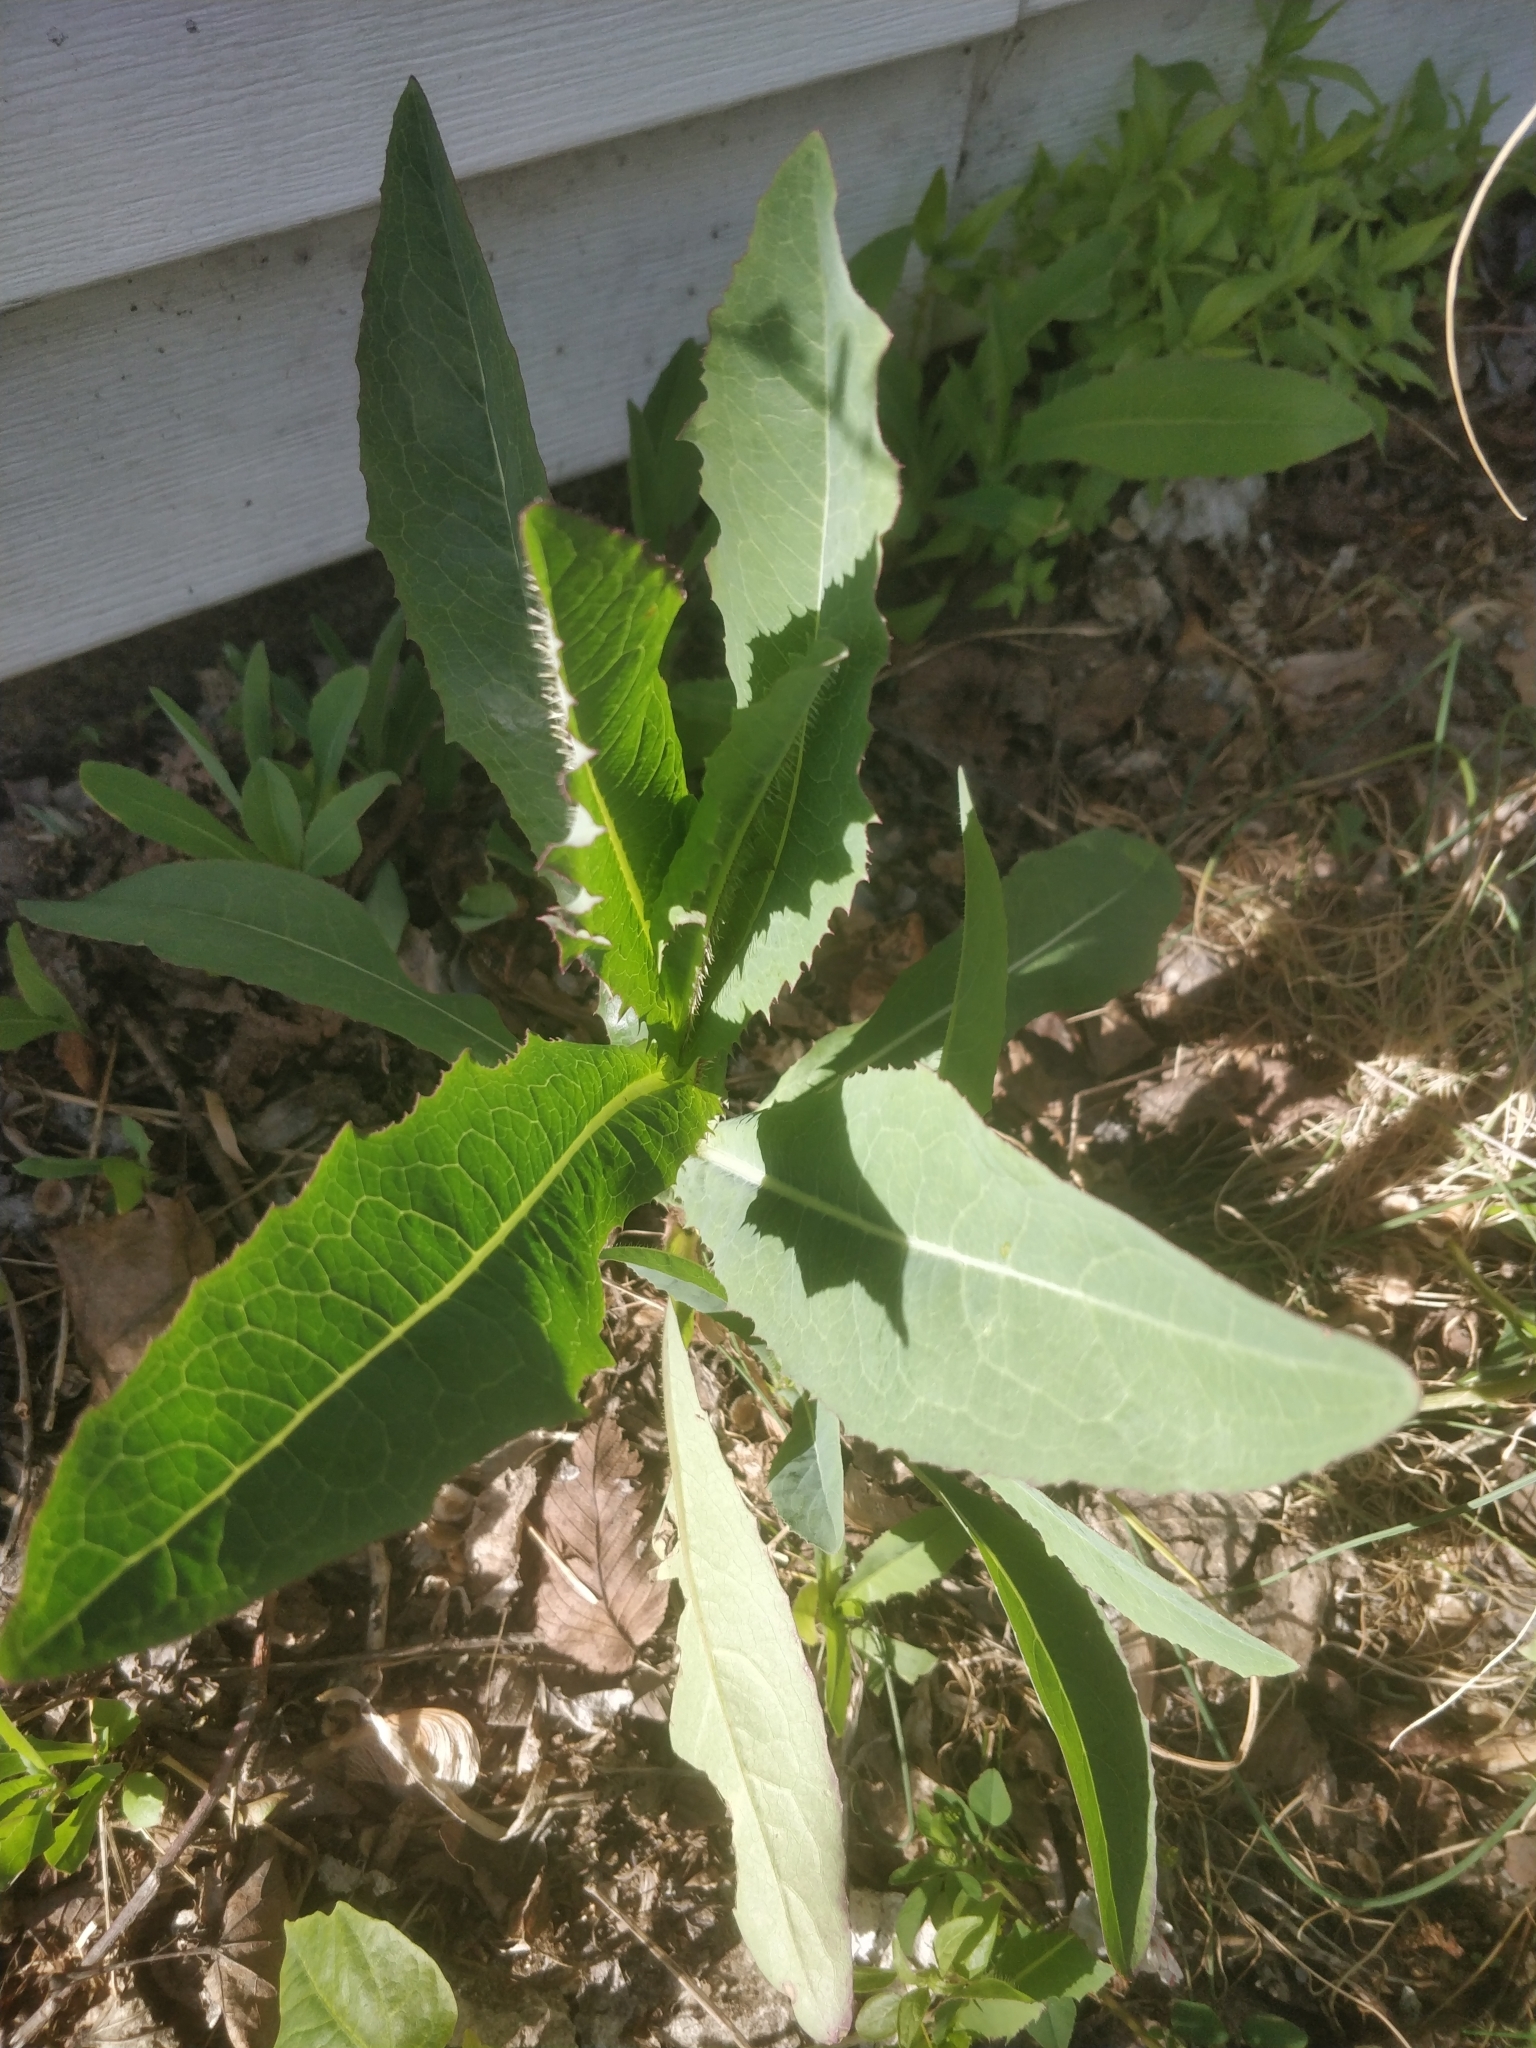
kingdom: Plantae
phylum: Tracheophyta
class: Magnoliopsida
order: Asterales
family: Asteraceae
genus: Lactuca
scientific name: Lactuca serriola
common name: Prickly lettuce
